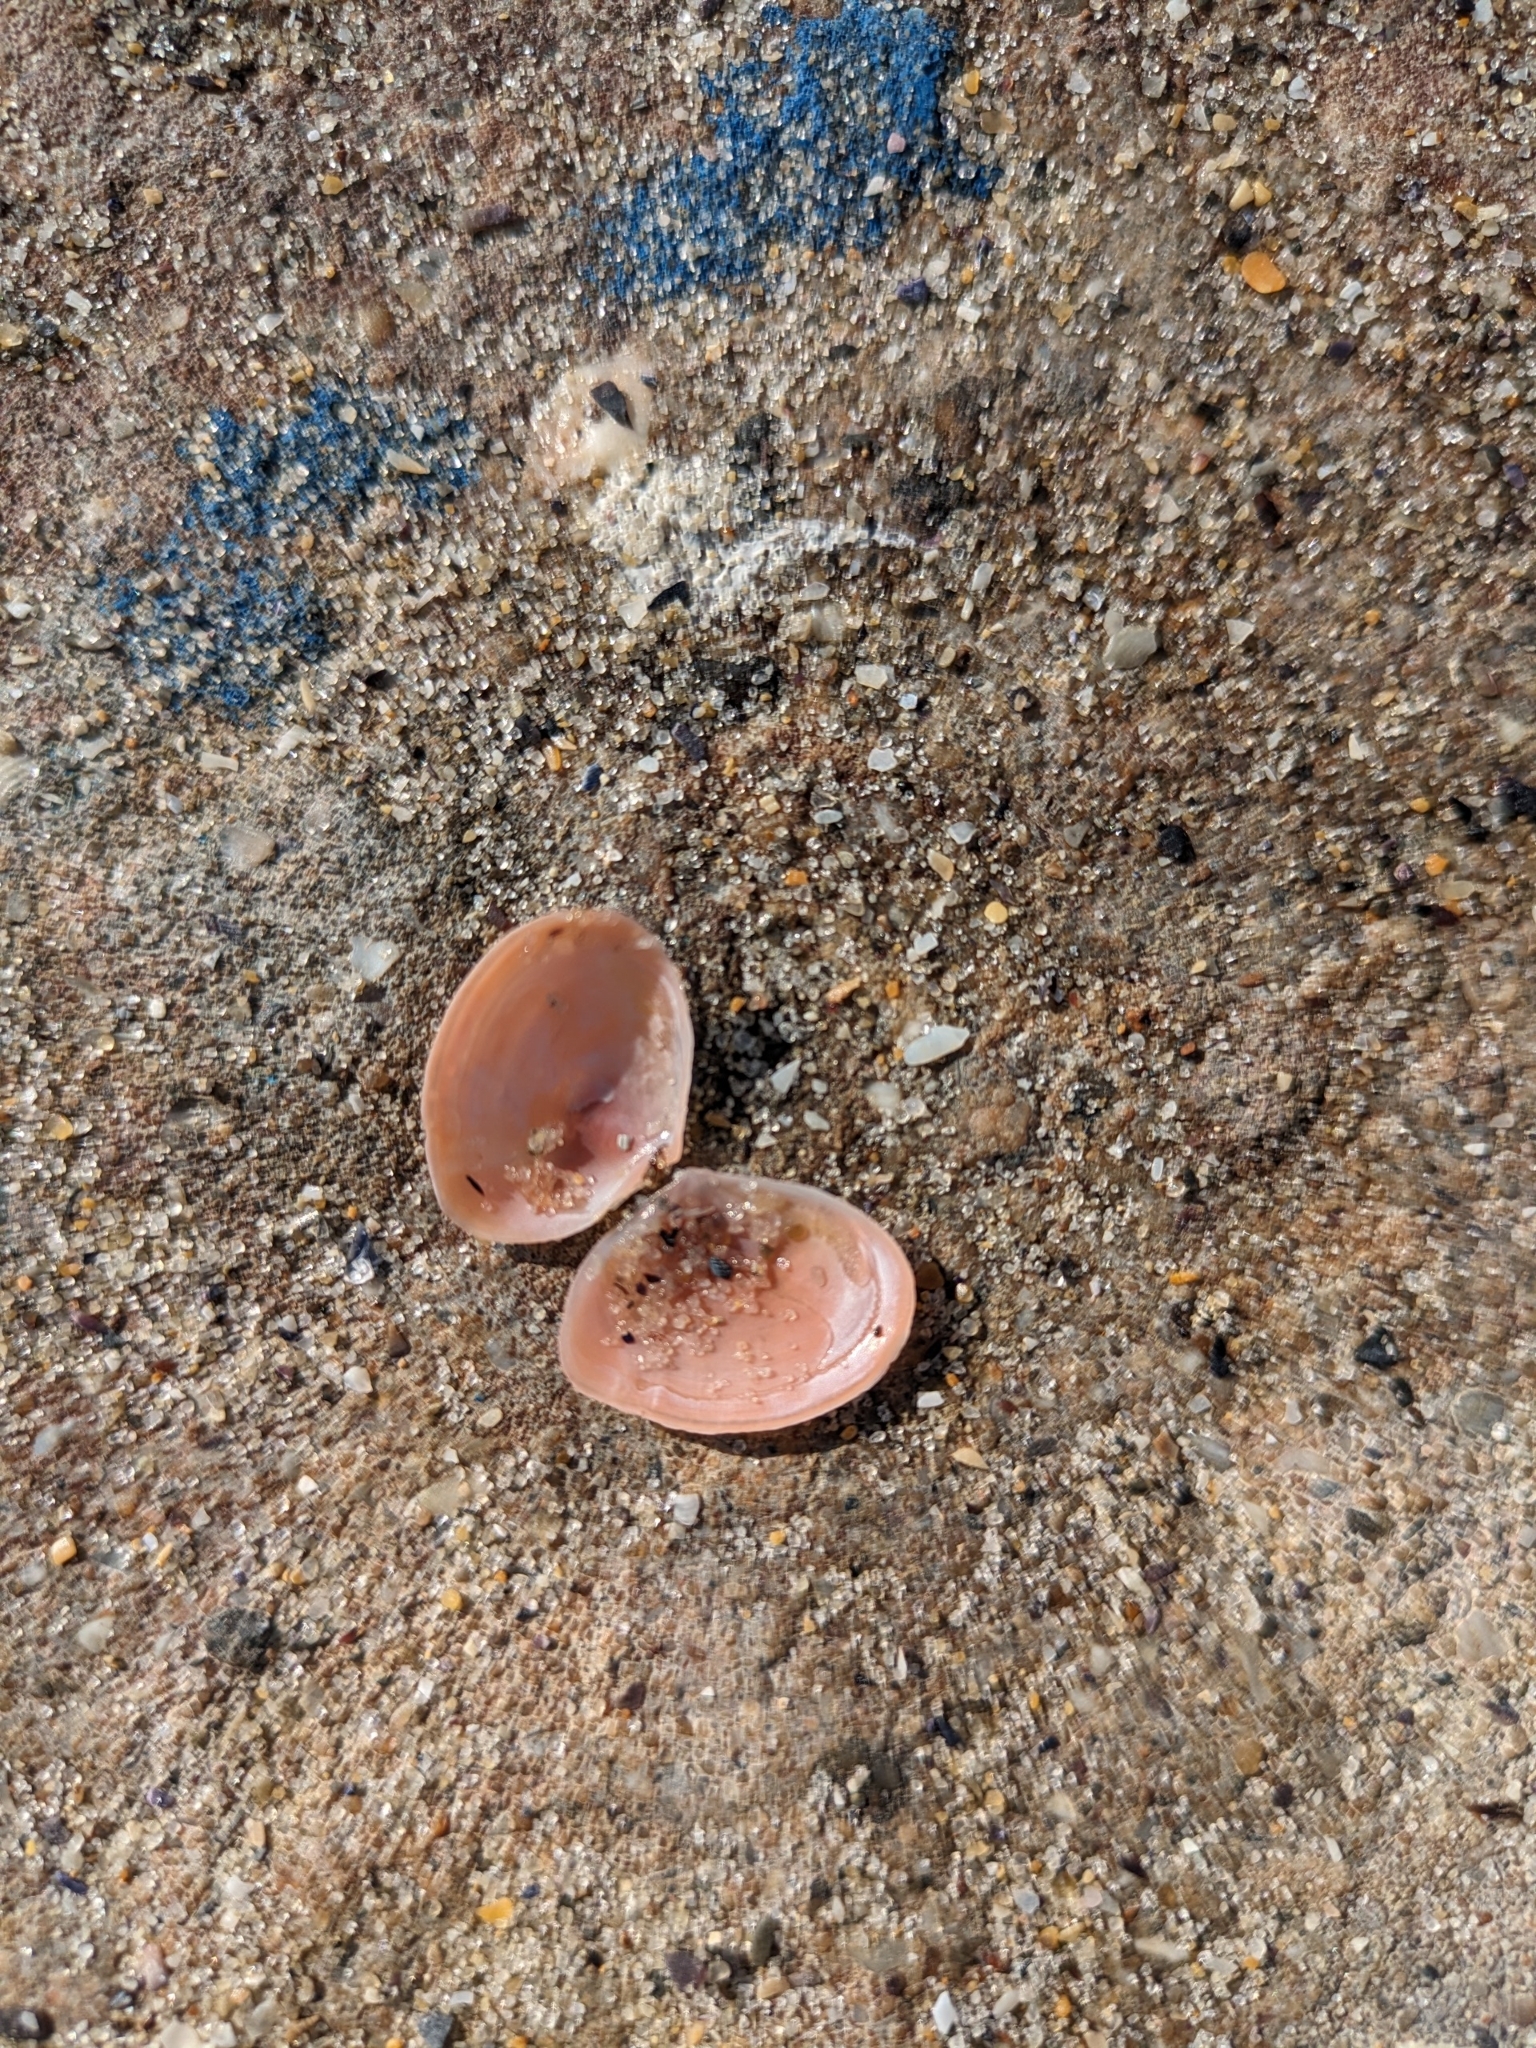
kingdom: Animalia
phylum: Mollusca
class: Bivalvia
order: Cardiida
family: Tellinidae
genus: Macomangulus
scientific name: Macomangulus tenuis
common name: Thin tellin
